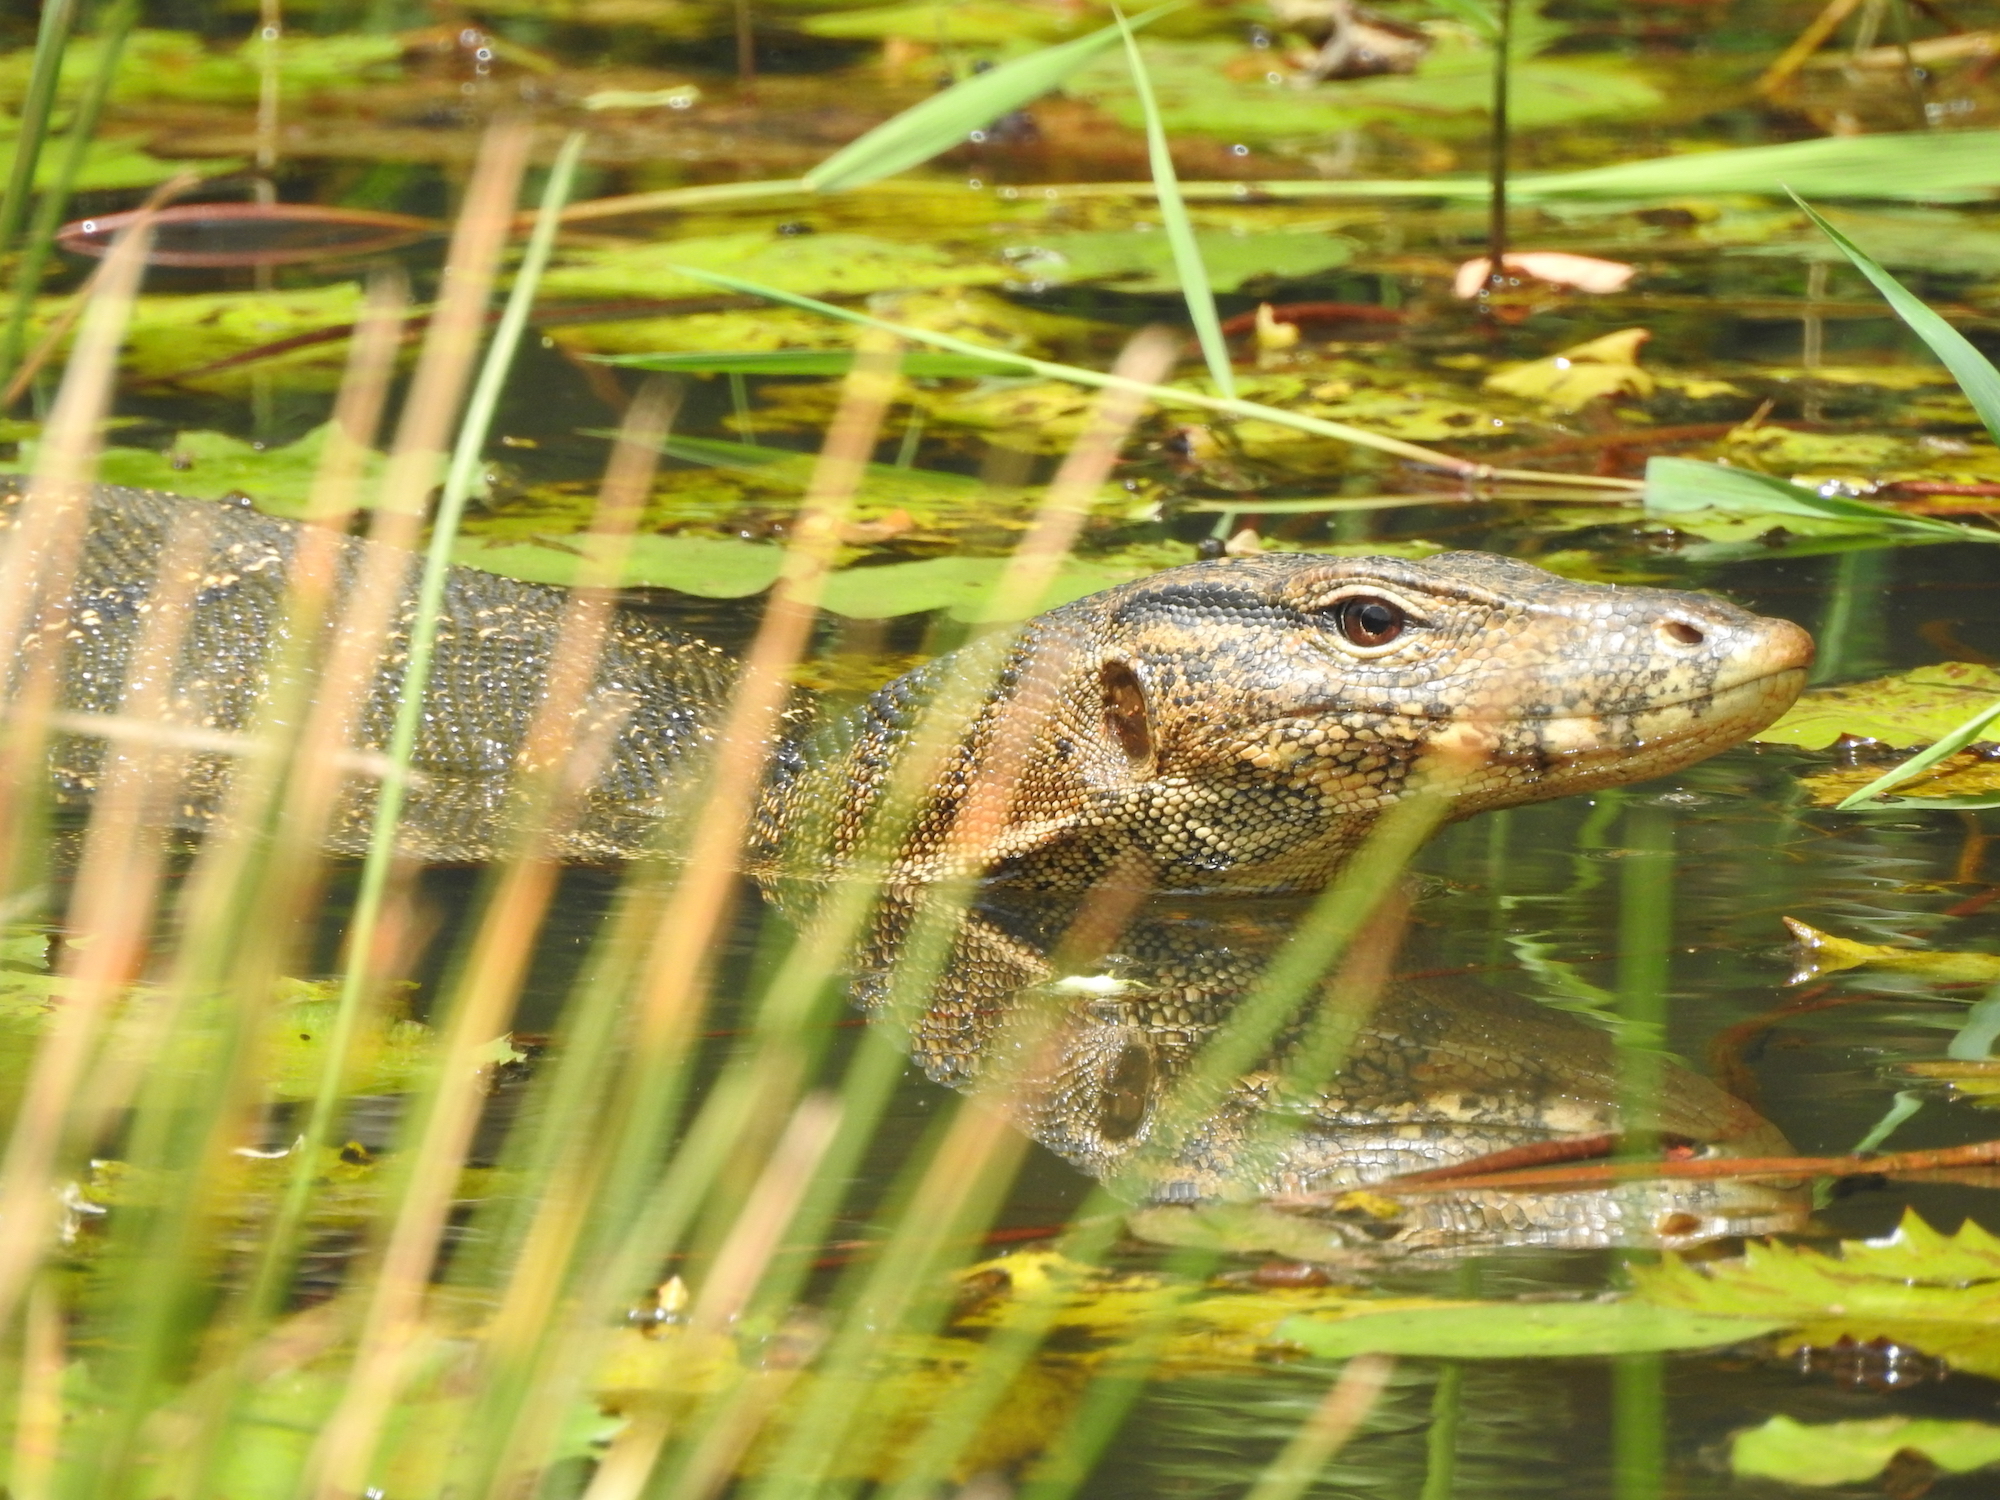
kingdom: Animalia
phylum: Chordata
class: Squamata
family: Varanidae
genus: Varanus
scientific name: Varanus salvator
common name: Common water monitor
